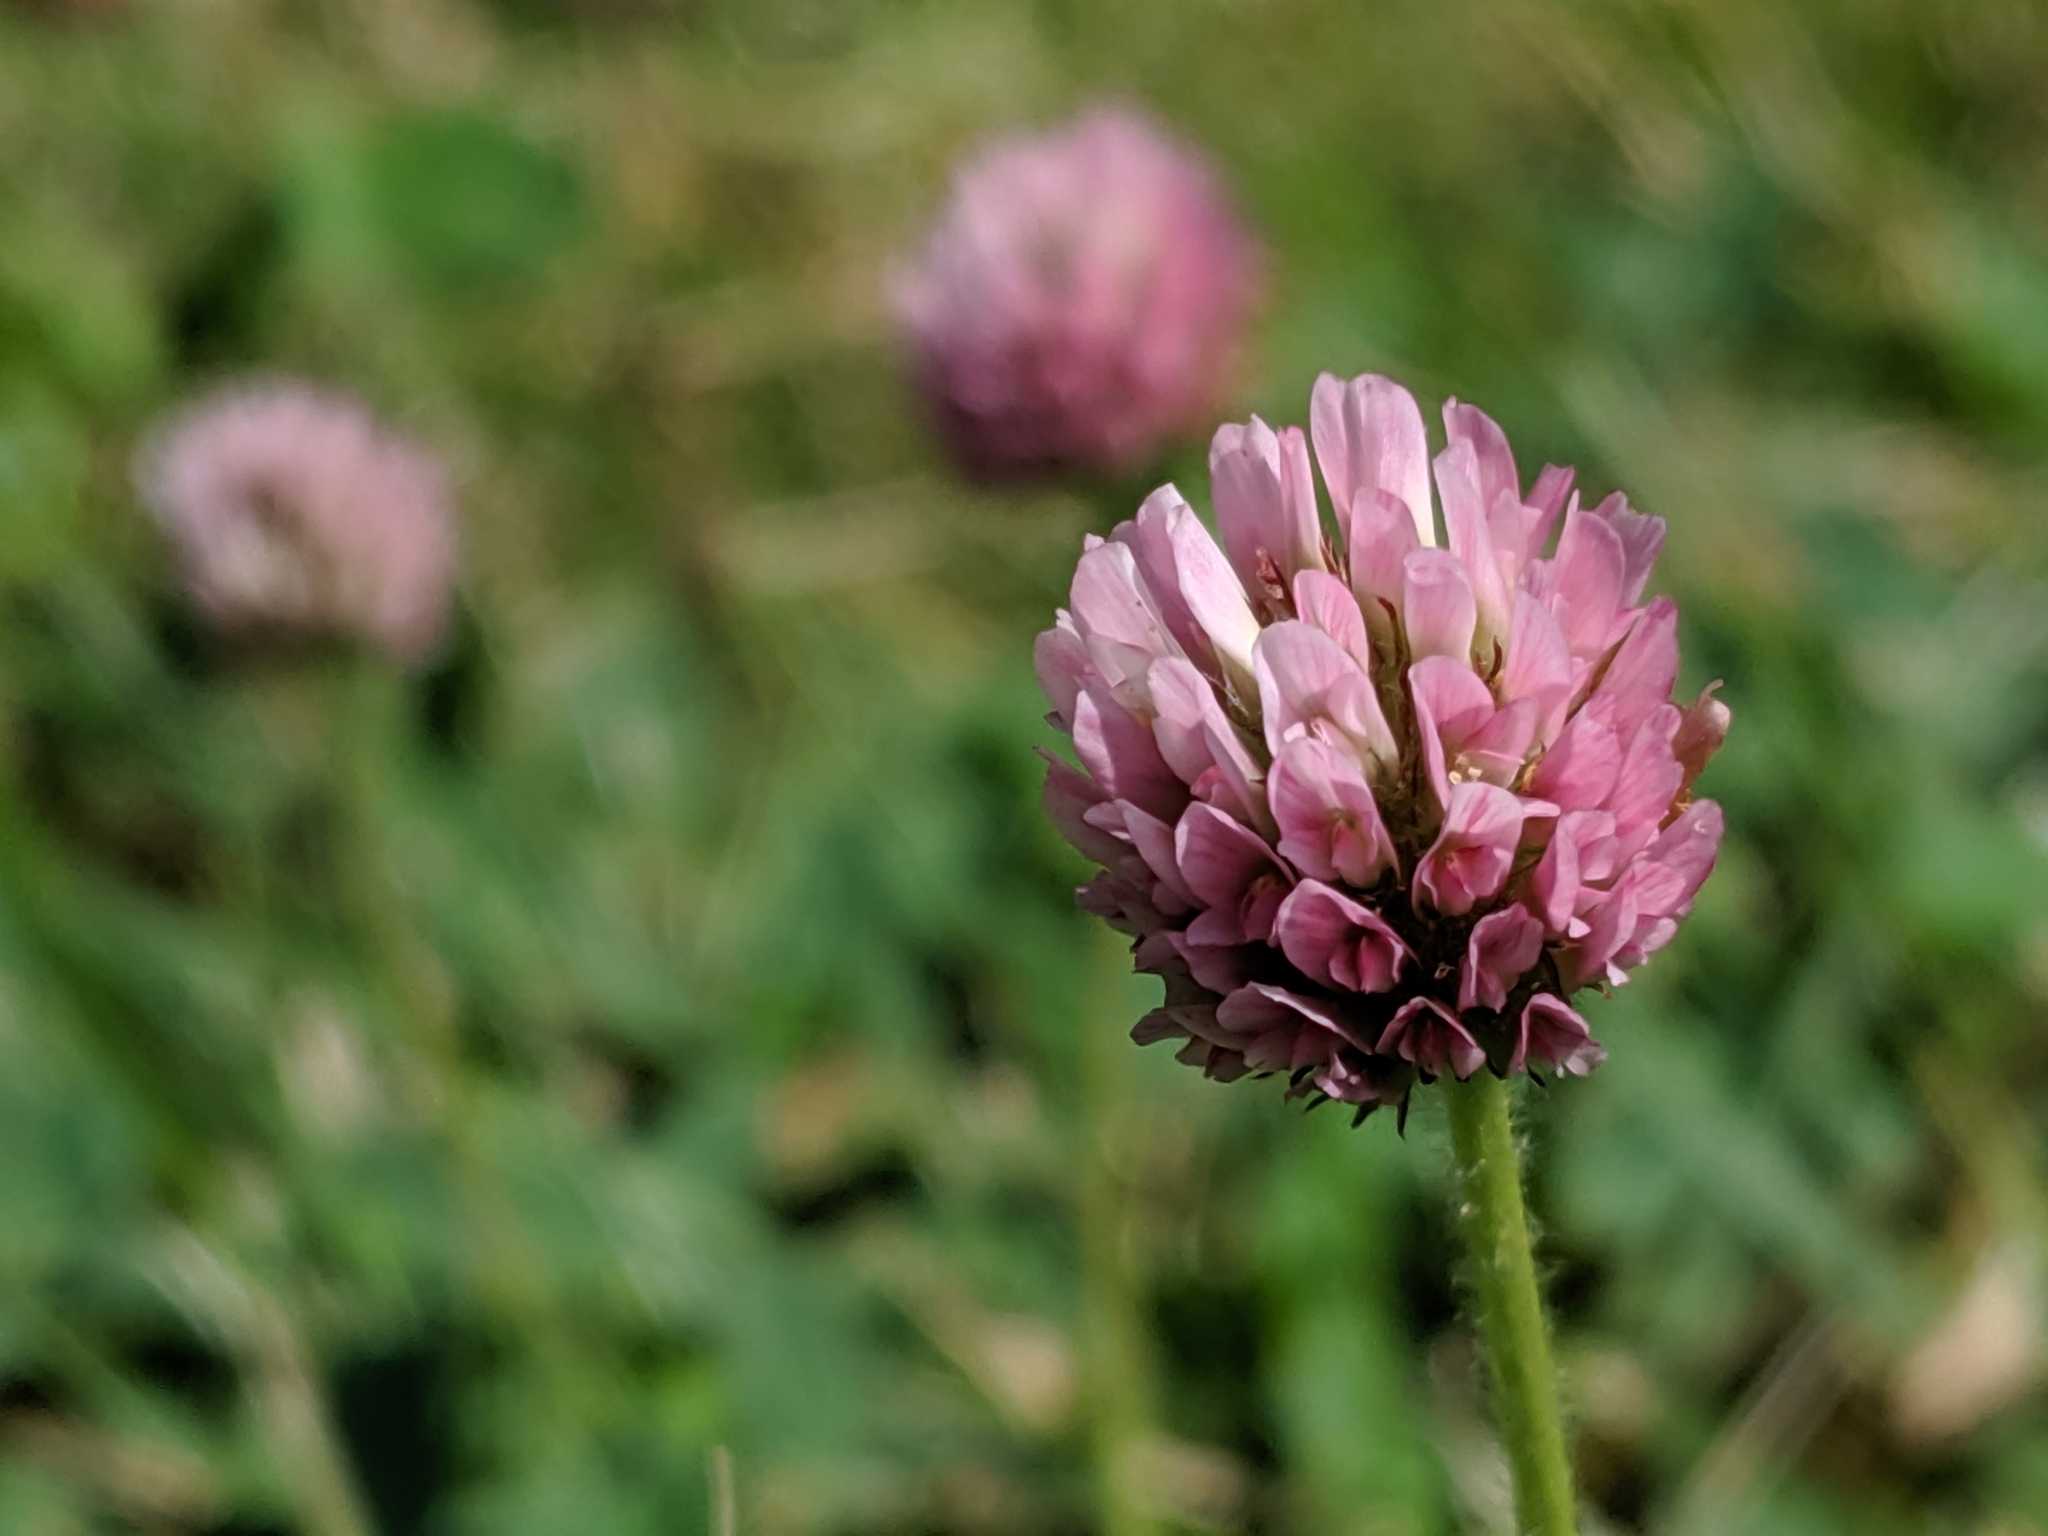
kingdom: Plantae
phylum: Tracheophyta
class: Magnoliopsida
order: Fabales
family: Fabaceae
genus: Trifolium
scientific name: Trifolium fragiferum
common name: Strawberry clover
